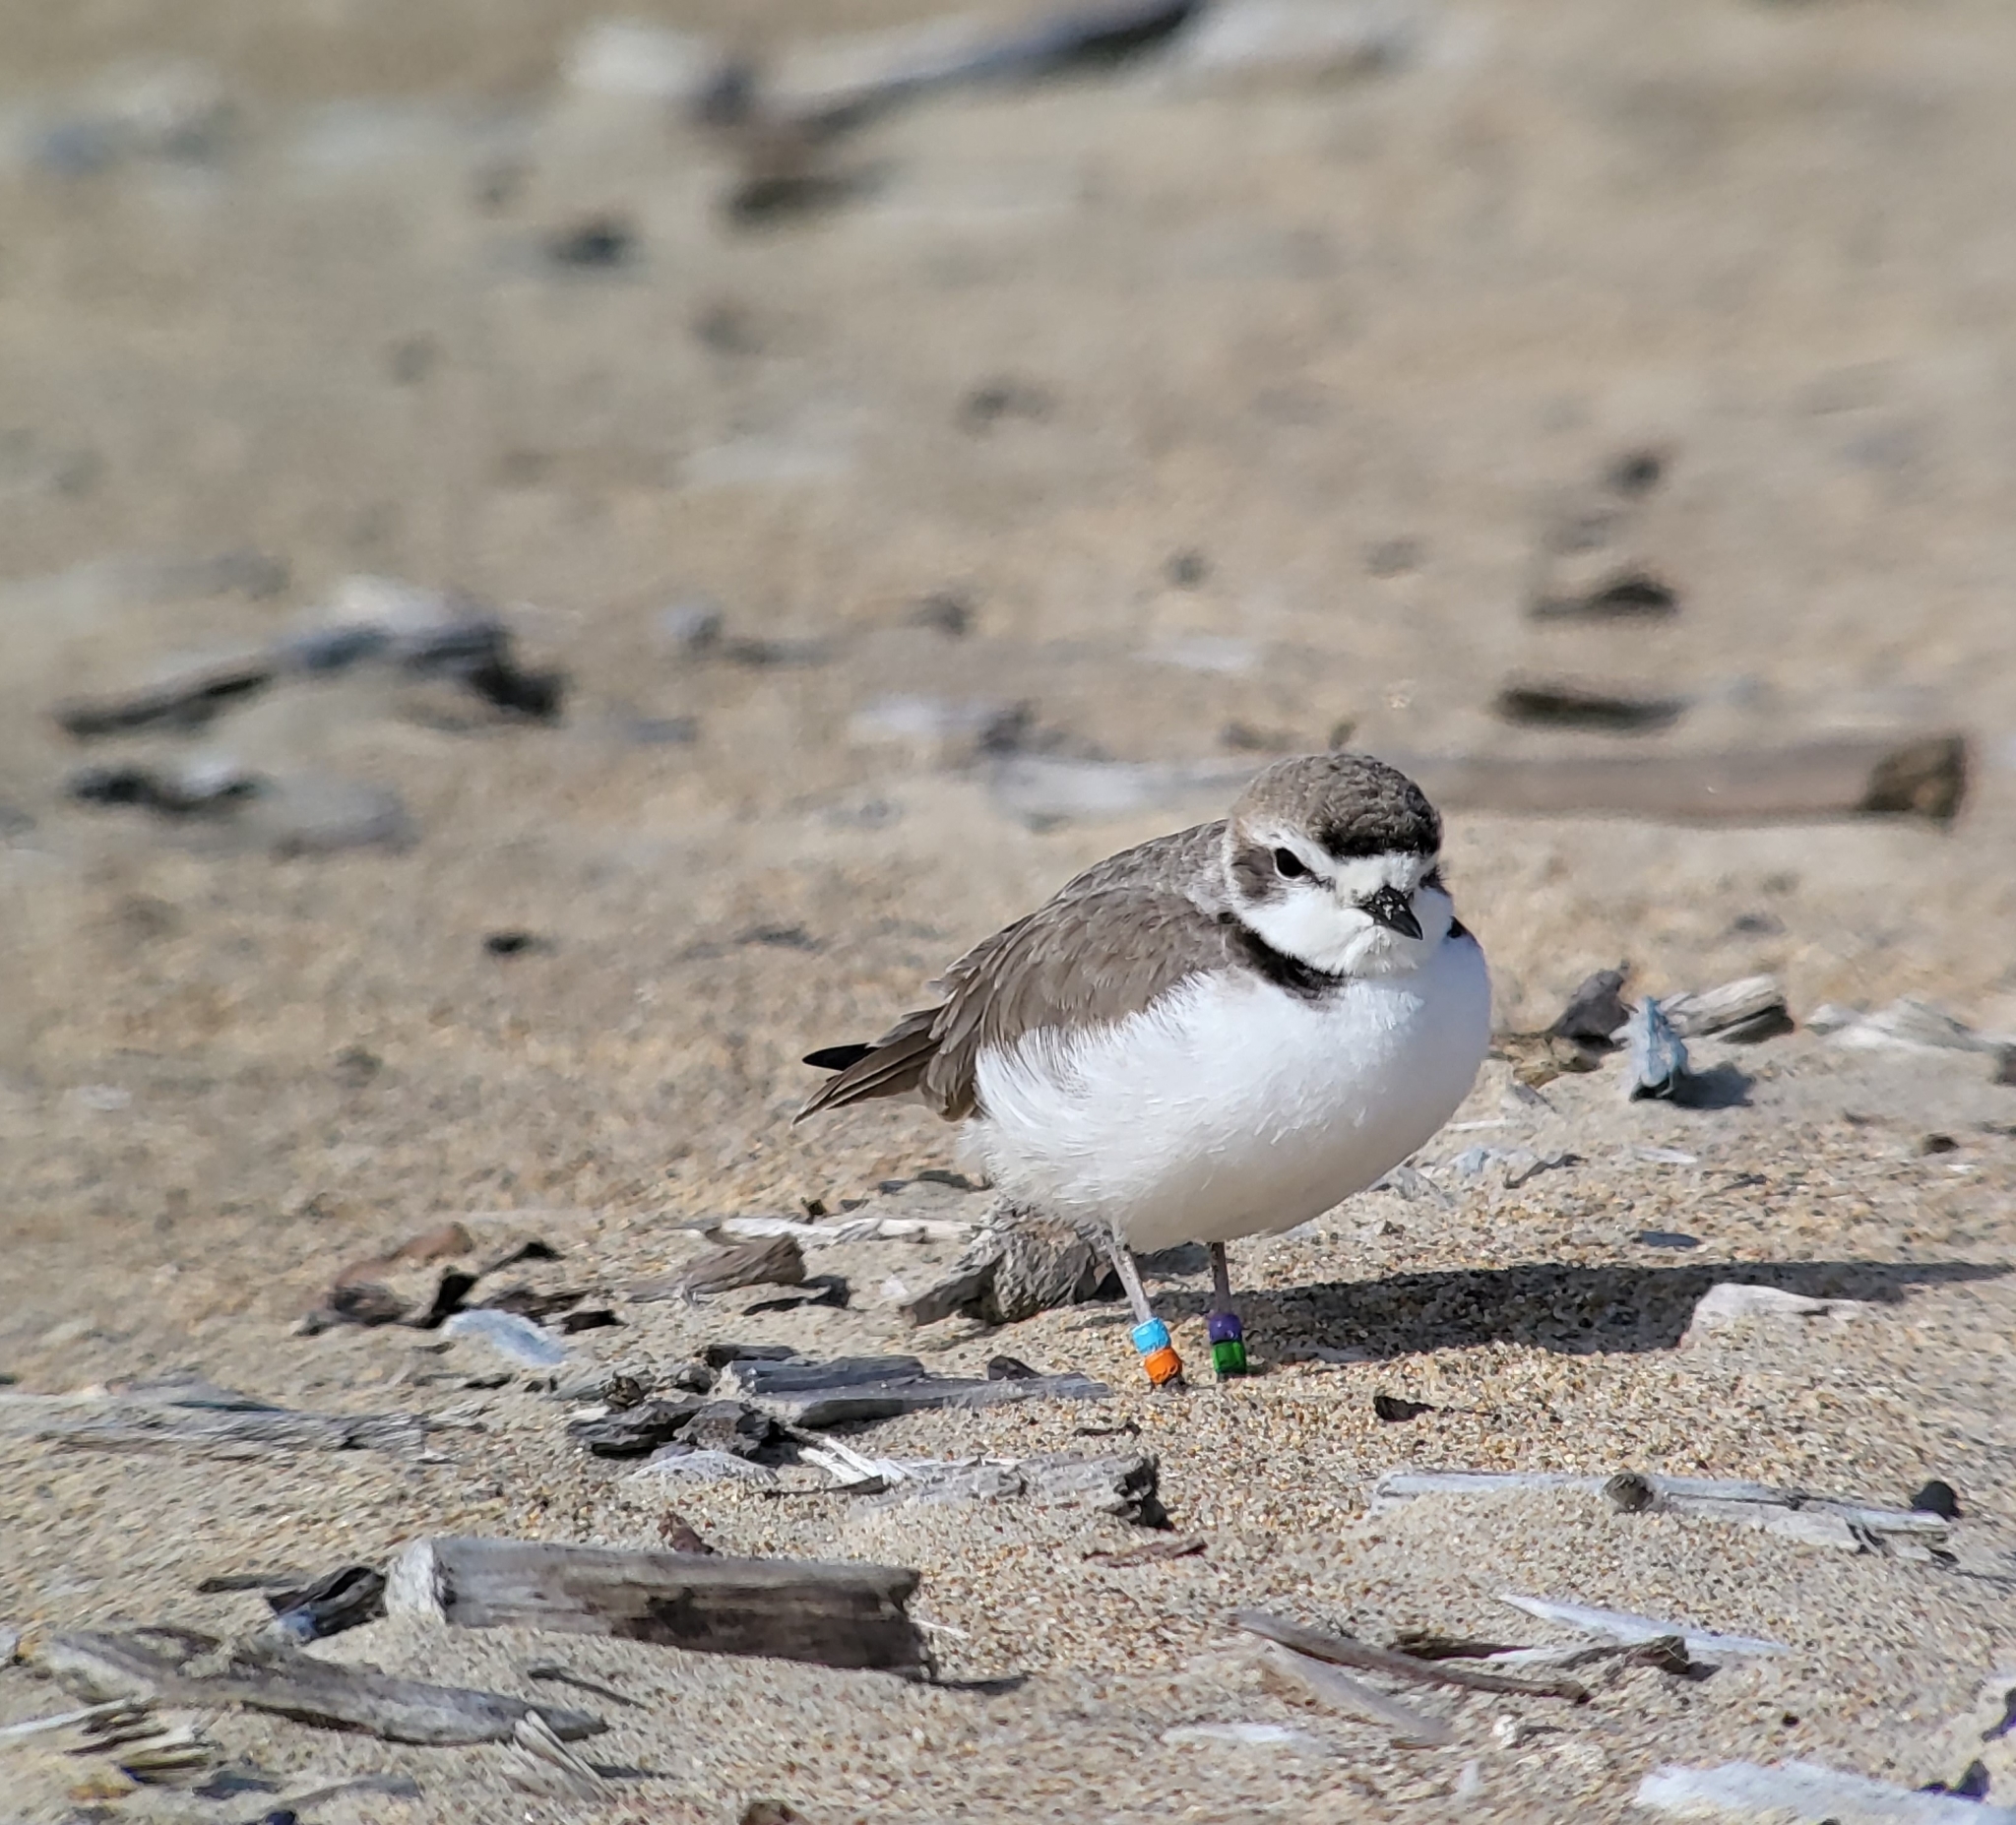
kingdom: Animalia
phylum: Chordata
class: Aves
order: Charadriiformes
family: Charadriidae
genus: Anarhynchus
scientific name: Anarhynchus
